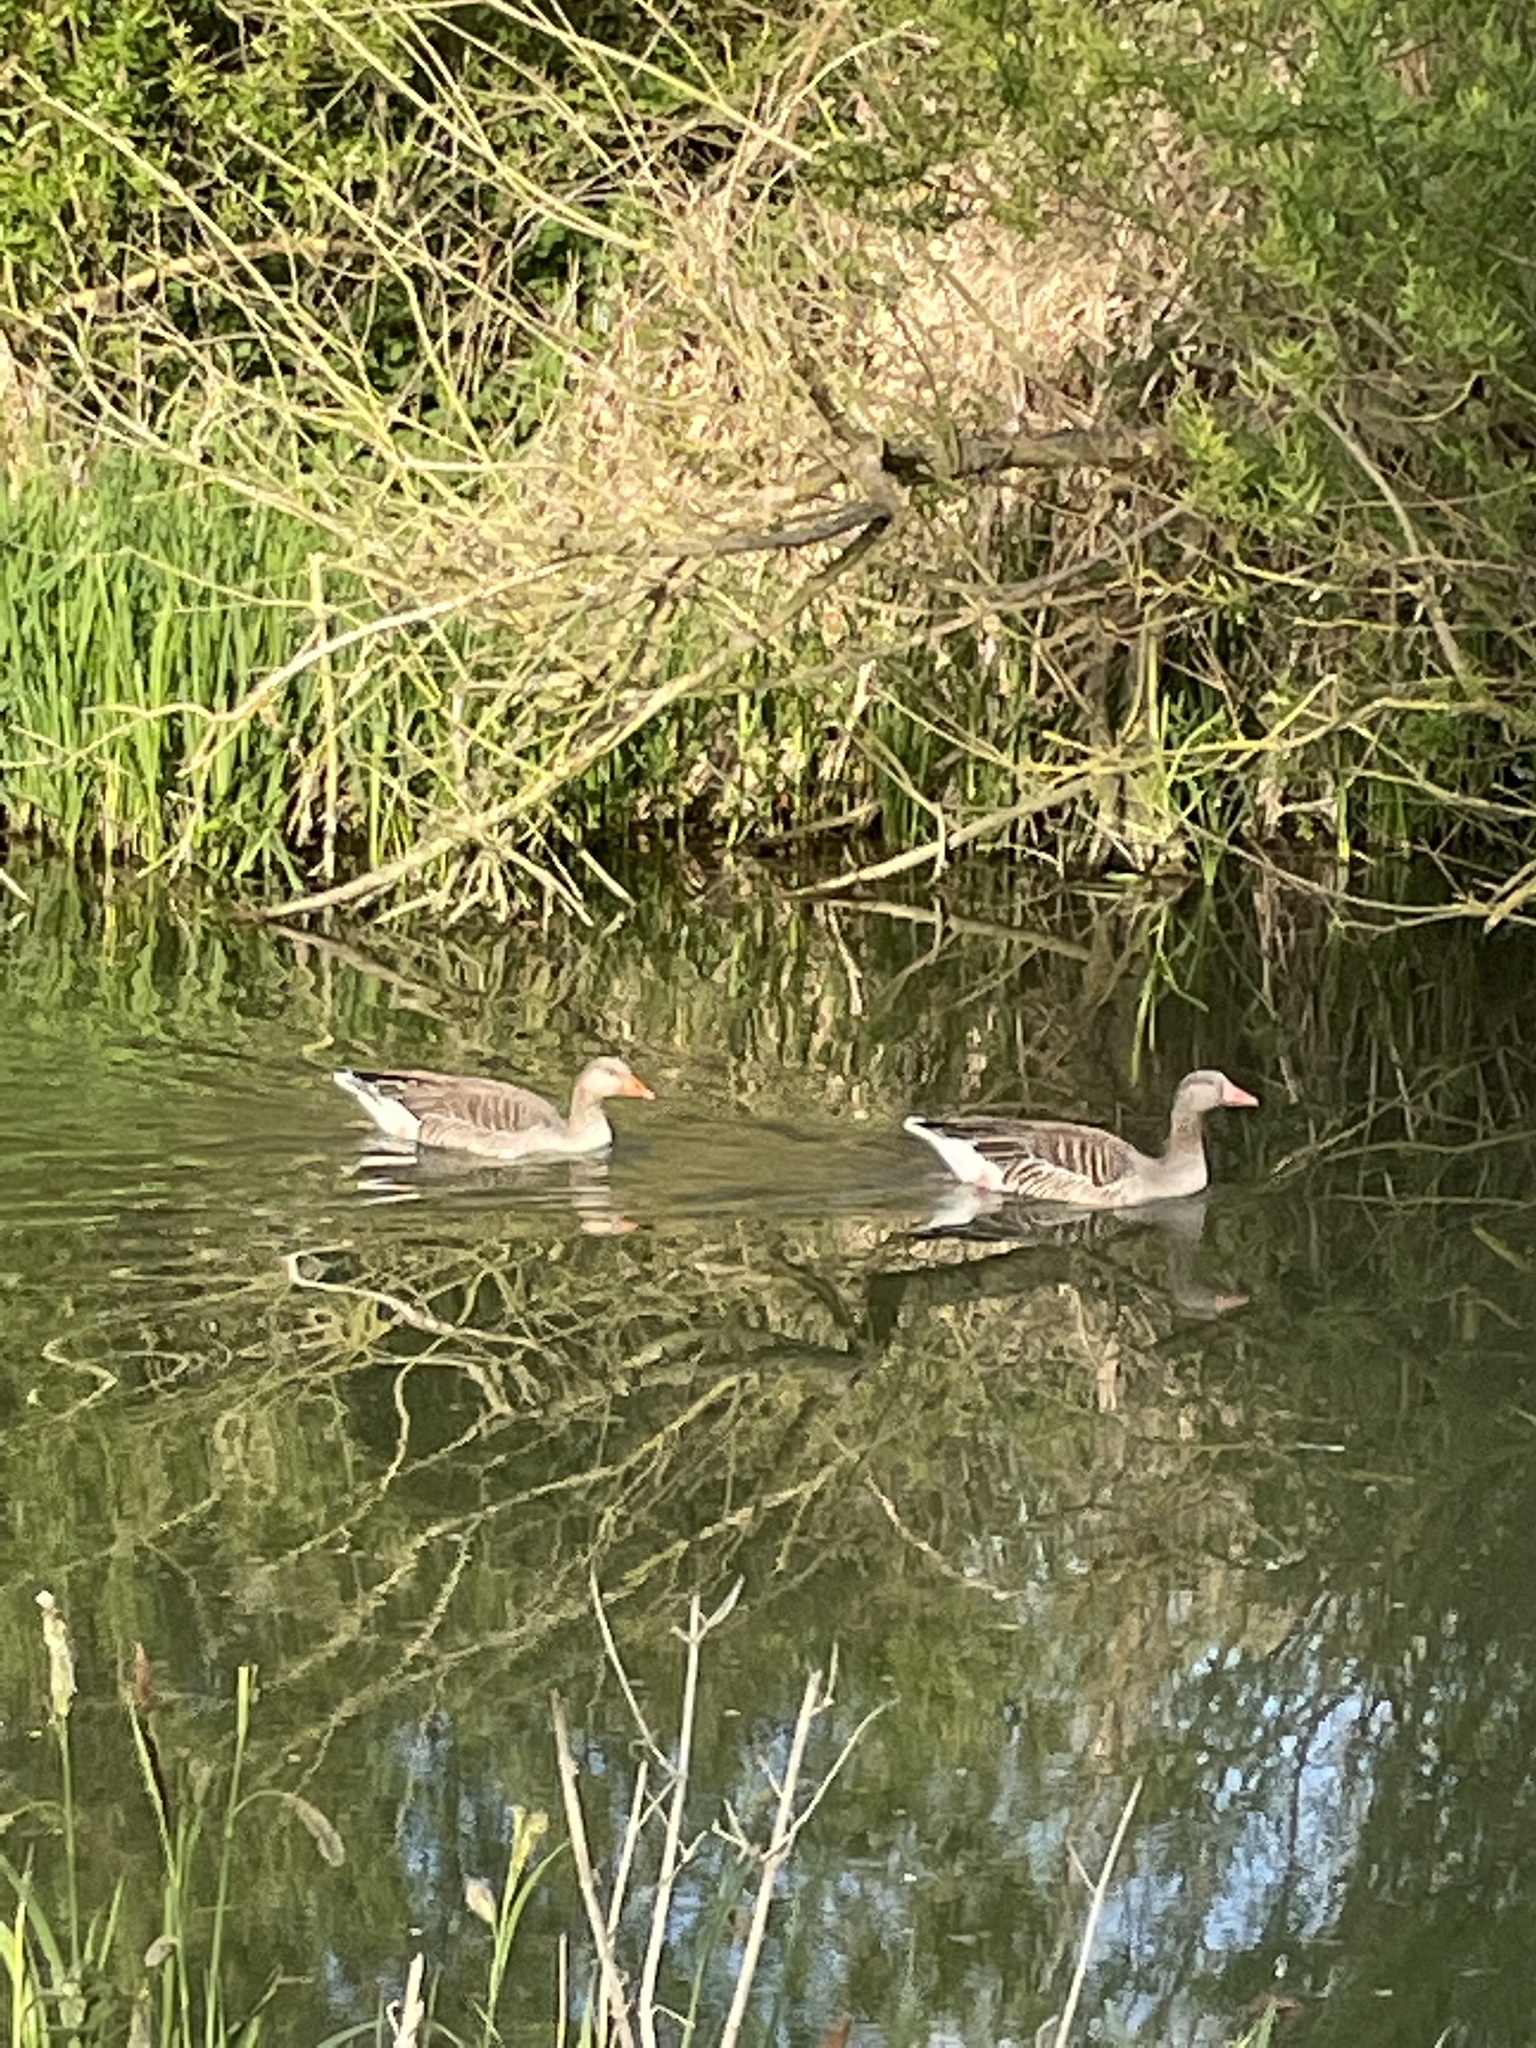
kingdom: Animalia
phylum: Chordata
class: Aves
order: Anseriformes
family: Anatidae
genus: Anser
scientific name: Anser anser
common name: Greylag goose
